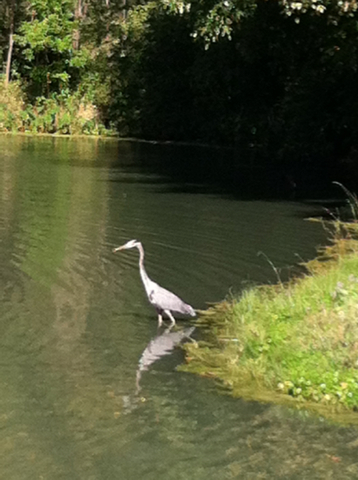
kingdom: Animalia
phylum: Chordata
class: Aves
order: Pelecaniformes
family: Ardeidae
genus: Ardea
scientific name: Ardea herodias
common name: Great blue heron
